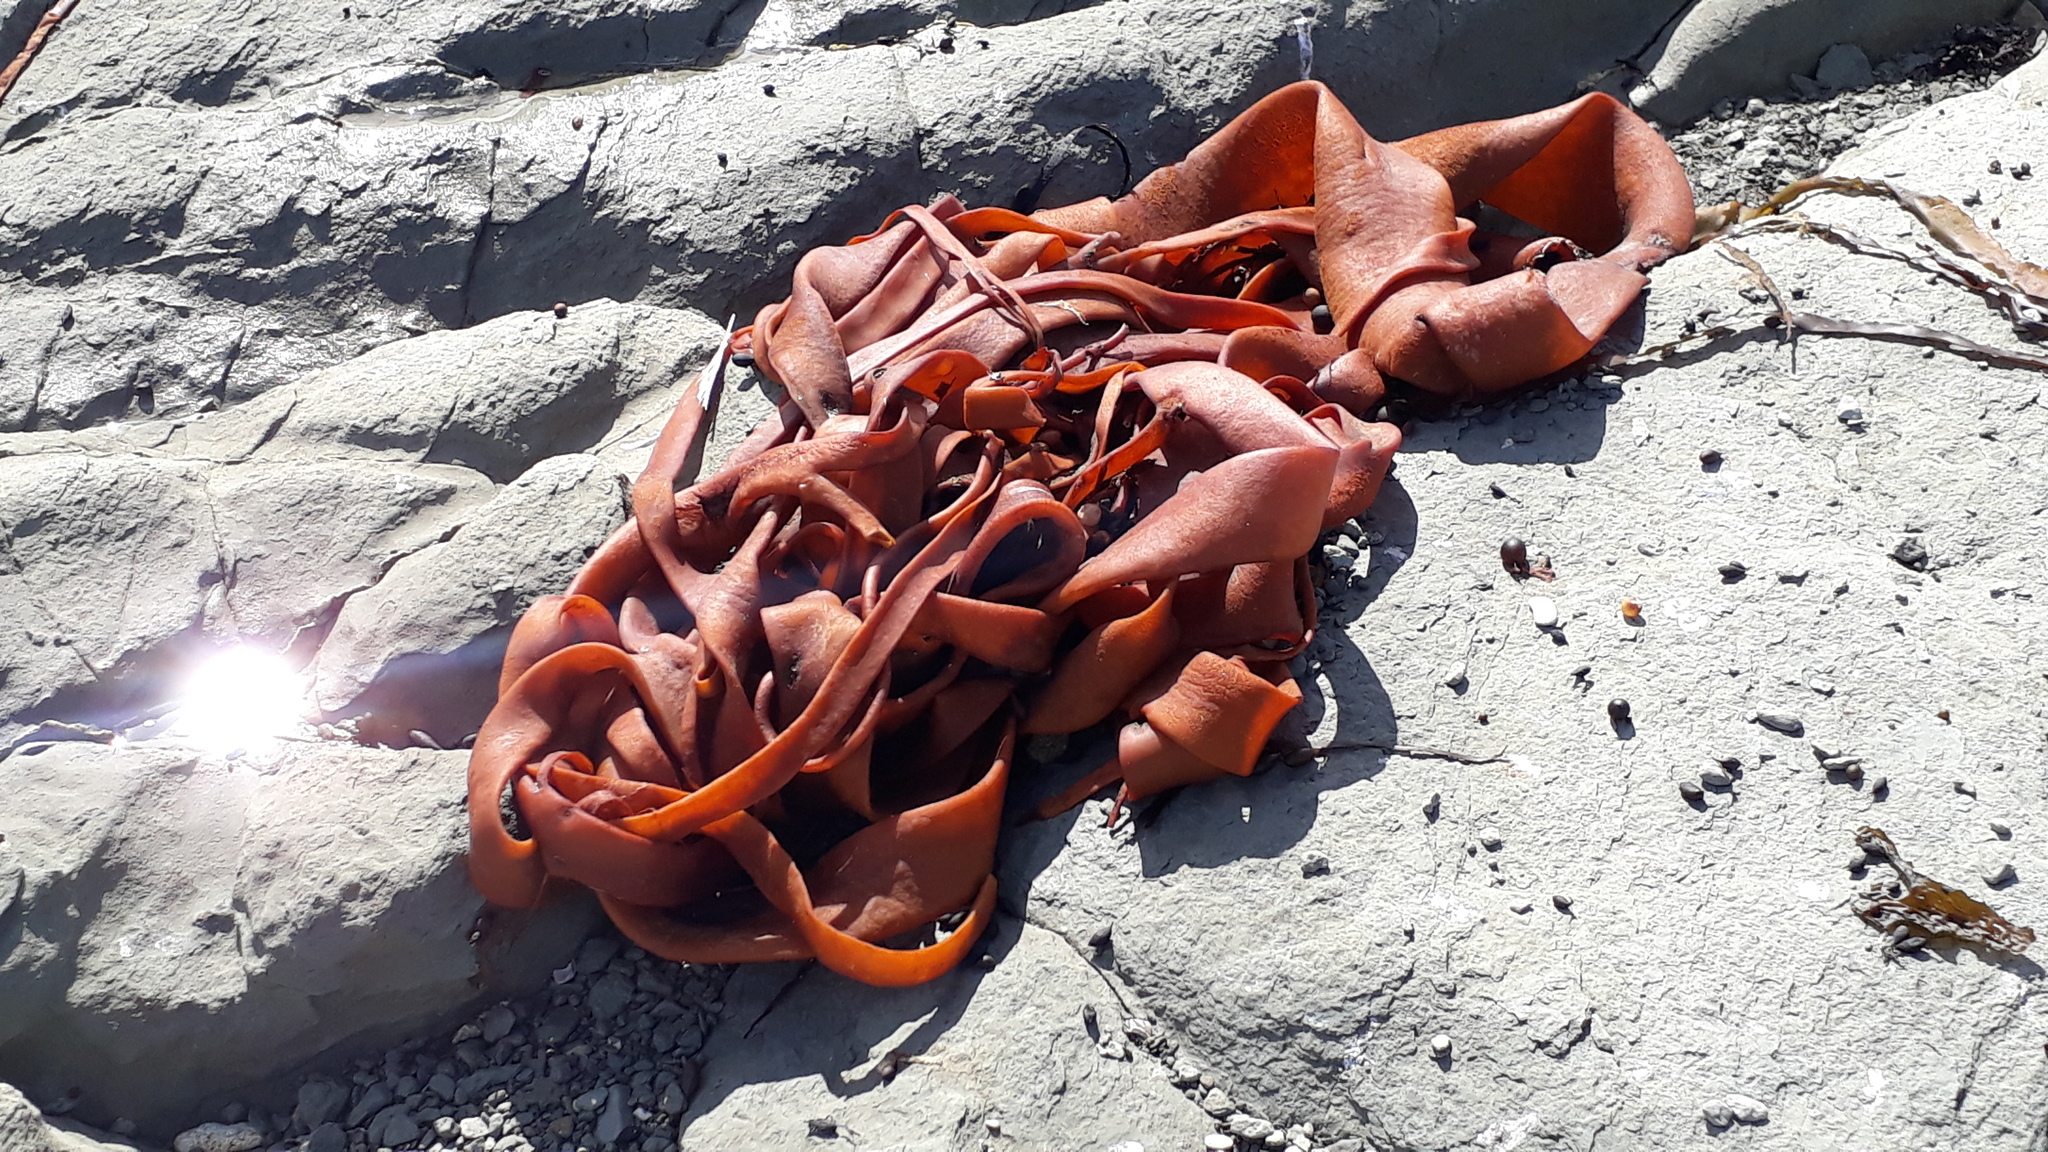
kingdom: Chromista
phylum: Ochrophyta
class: Phaeophyceae
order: Fucales
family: Durvillaeaceae
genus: Durvillaea
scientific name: Durvillaea antarctica
